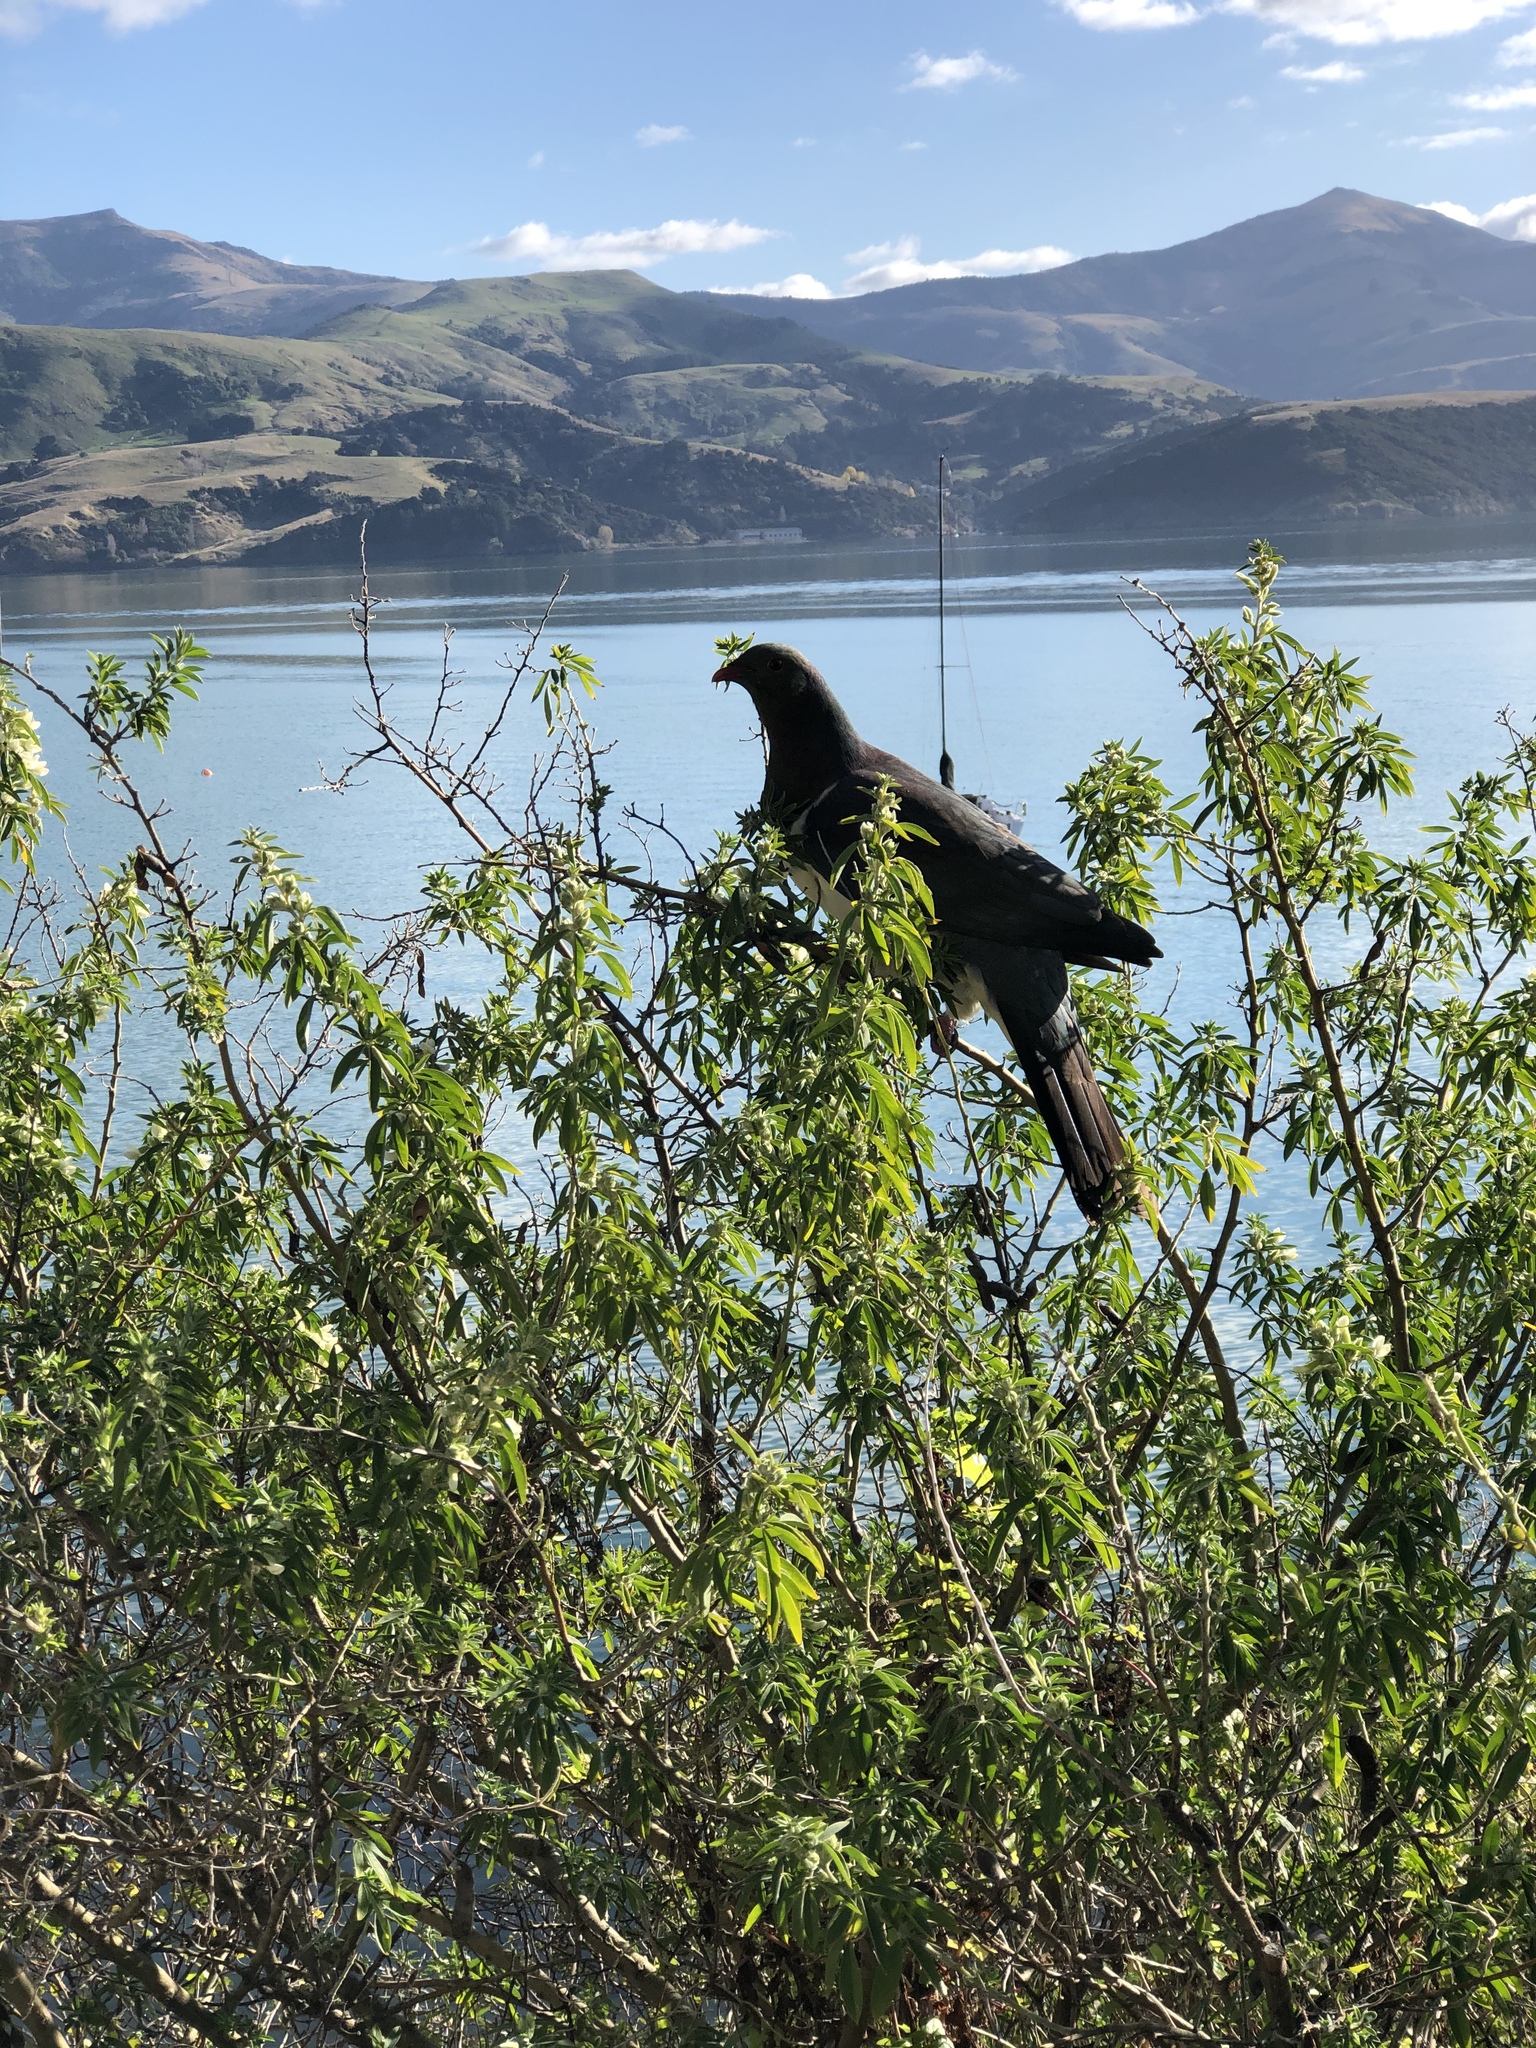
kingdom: Animalia
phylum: Chordata
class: Aves
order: Columbiformes
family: Columbidae
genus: Hemiphaga
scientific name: Hemiphaga novaeseelandiae
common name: New zealand pigeon
